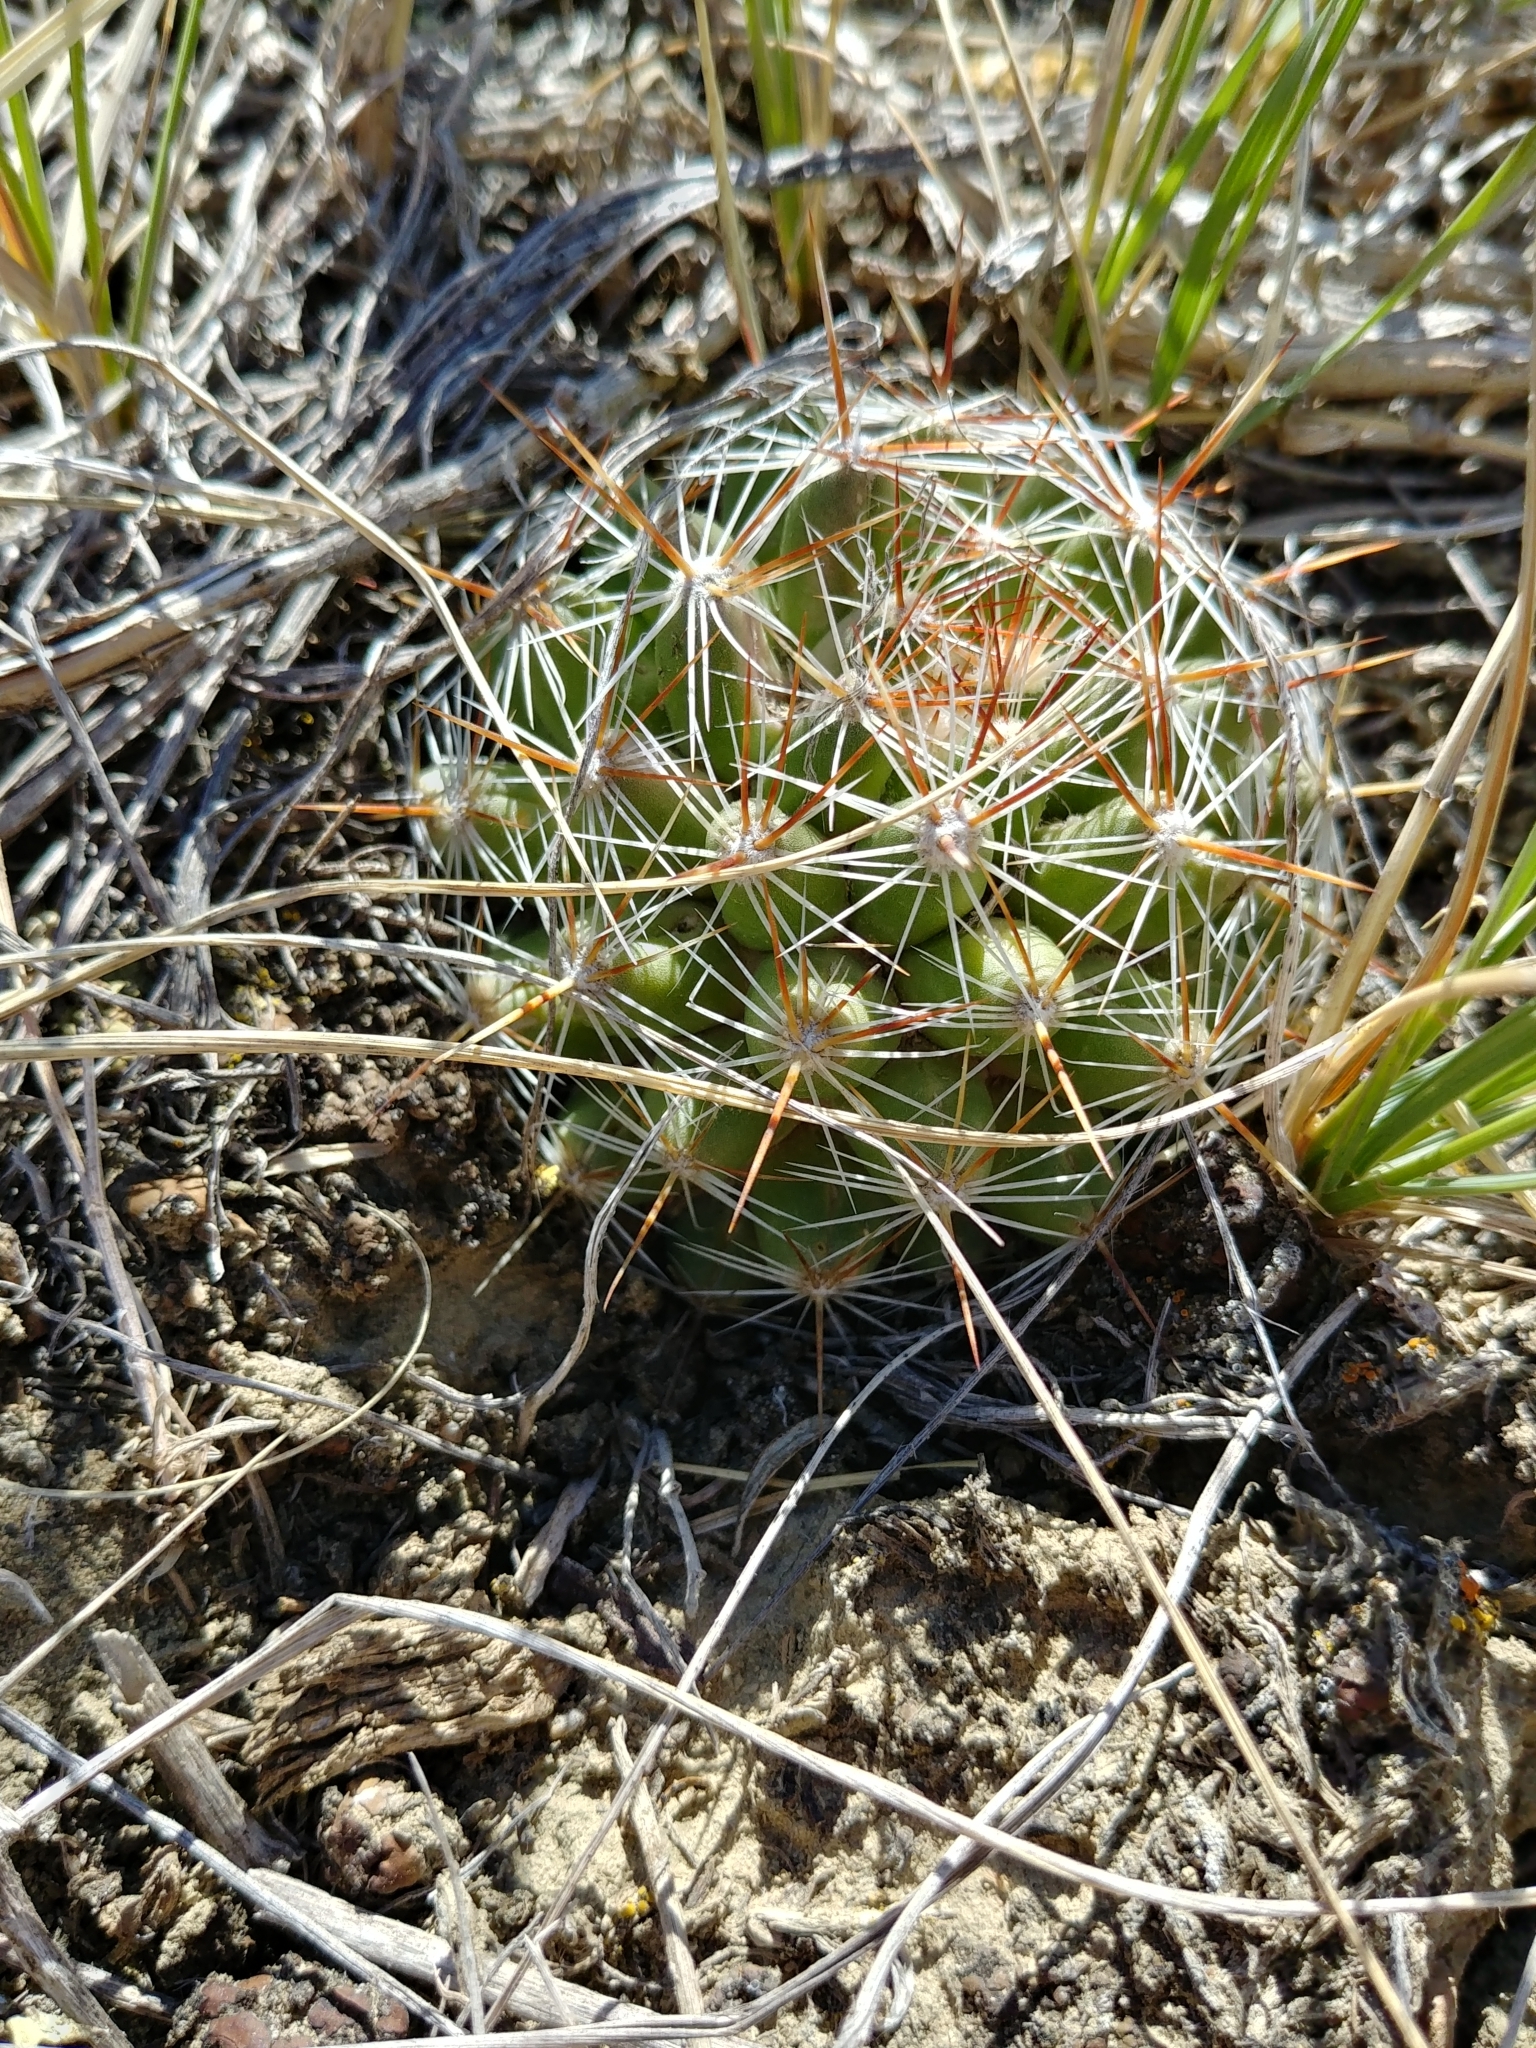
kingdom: Plantae
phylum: Tracheophyta
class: Magnoliopsida
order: Caryophyllales
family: Cactaceae
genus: Pelecyphora
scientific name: Pelecyphora vivipara
